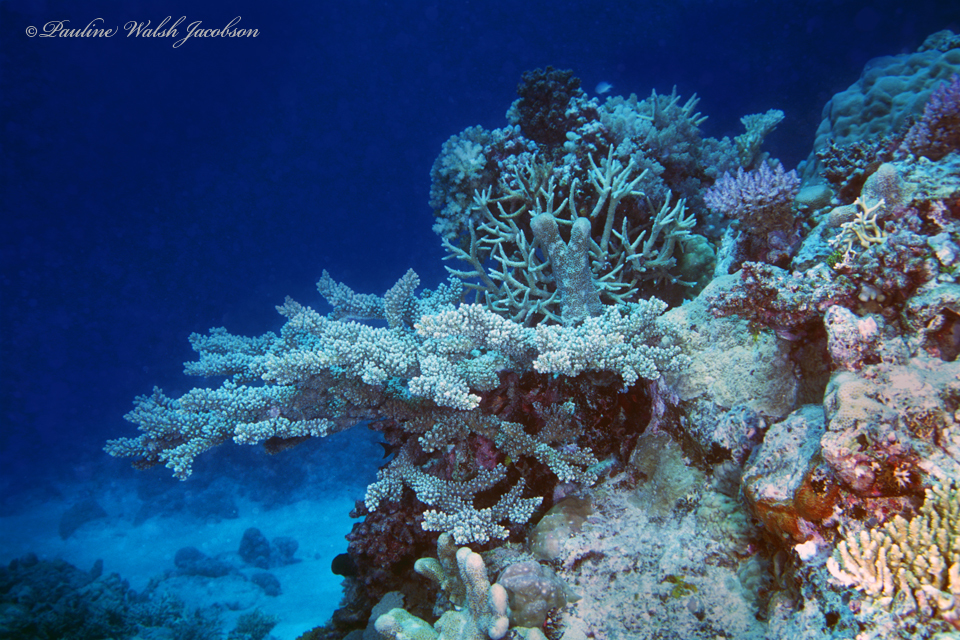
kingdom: Animalia
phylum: Cnidaria
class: Anthozoa
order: Scleractinia
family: Acroporidae
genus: Acropora
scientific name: Acropora florida
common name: Branch coral
